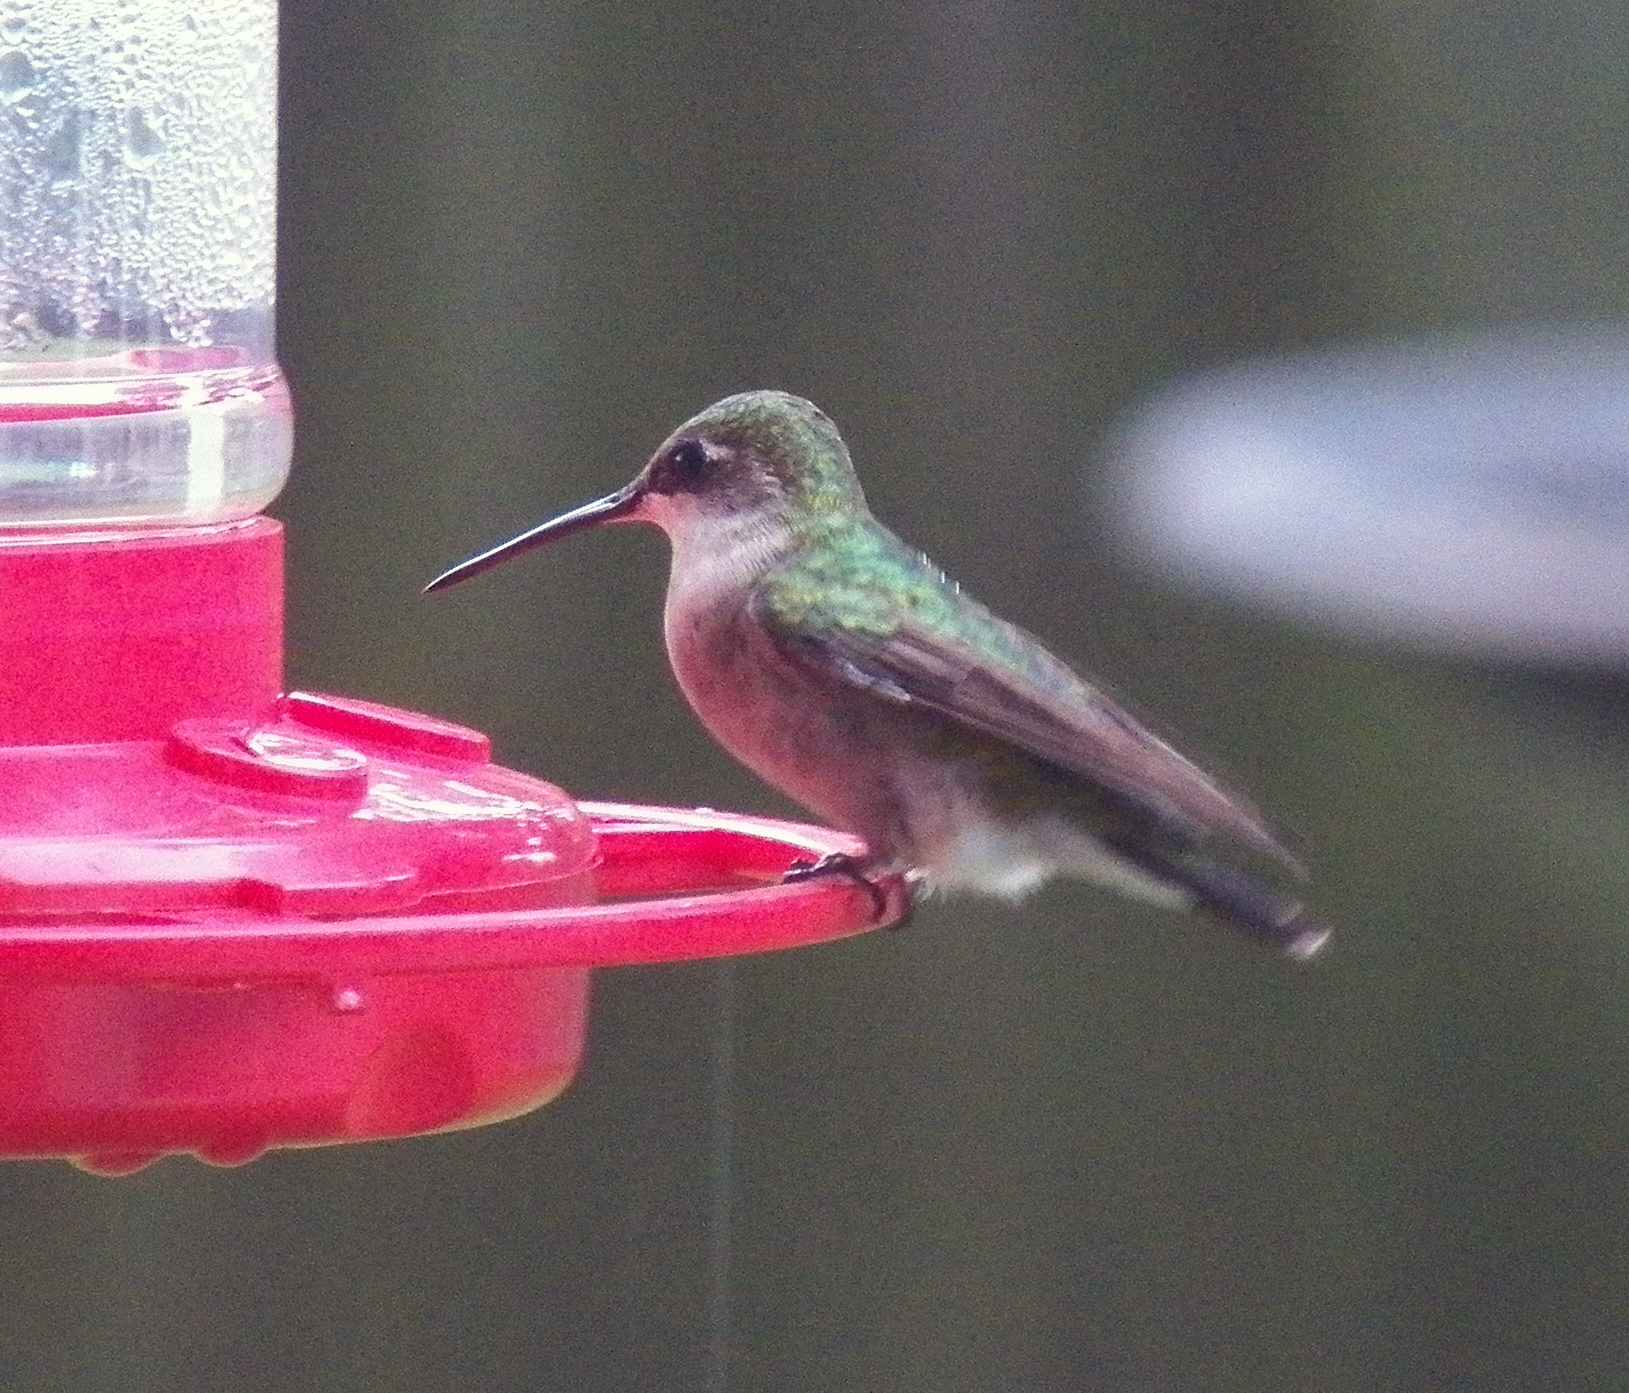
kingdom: Animalia
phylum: Chordata
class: Aves
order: Apodiformes
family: Trochilidae
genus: Archilochus
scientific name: Archilochus colubris
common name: Ruby-throated hummingbird
